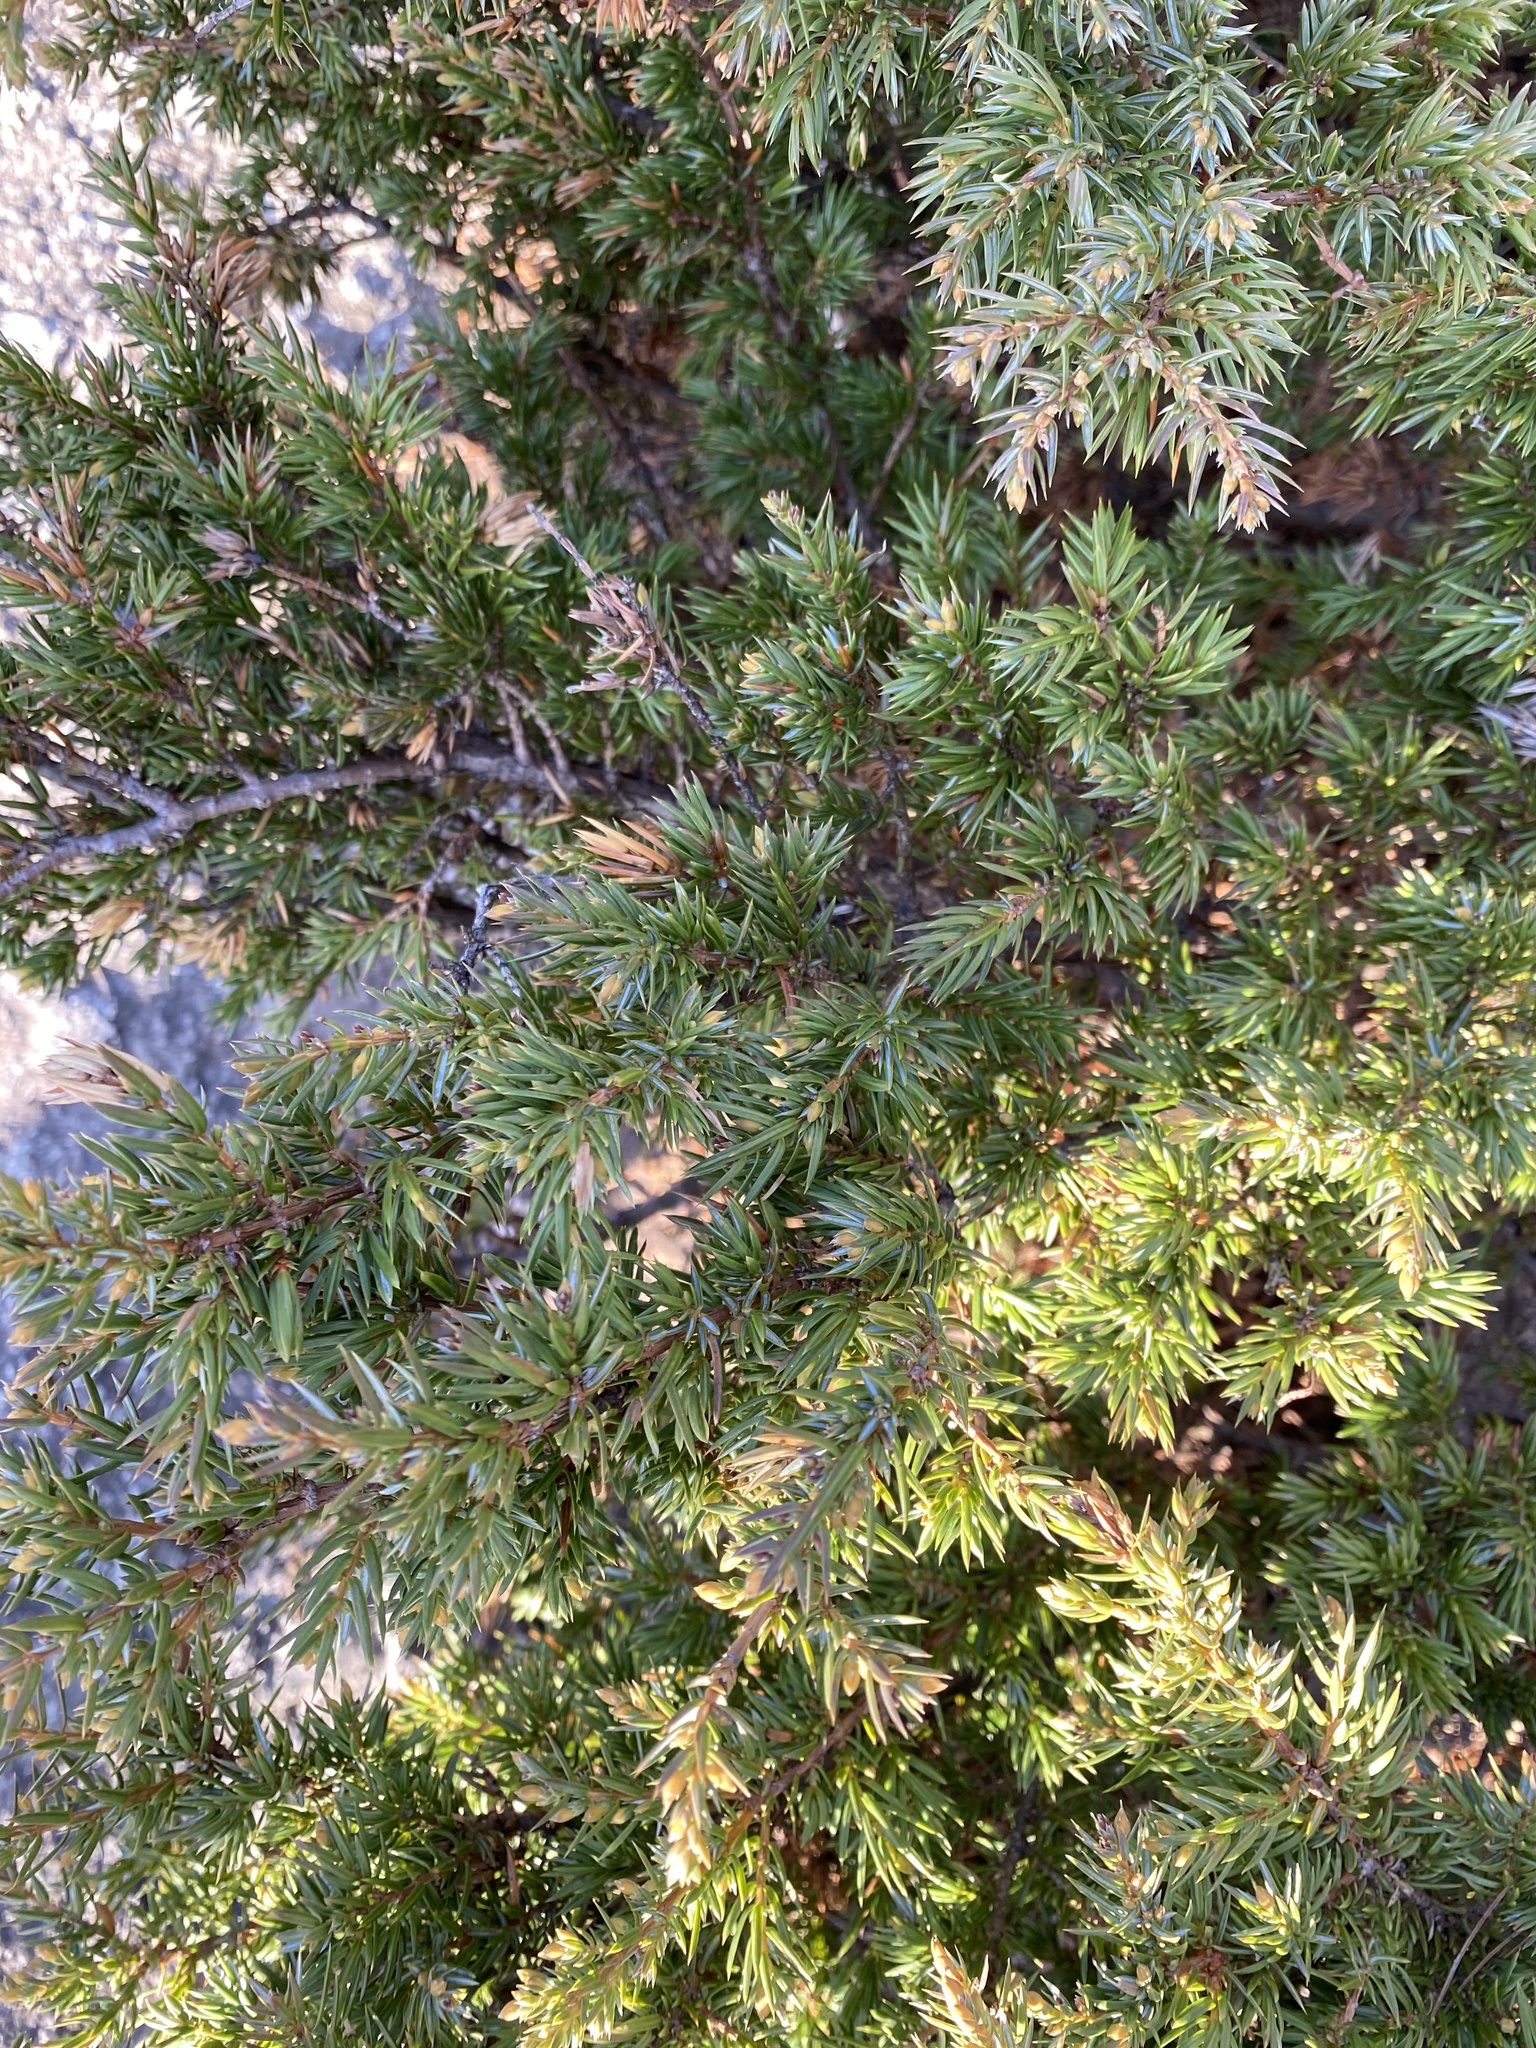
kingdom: Plantae
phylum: Tracheophyta
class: Pinopsida
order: Pinales
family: Cupressaceae
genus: Juniperus
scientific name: Juniperus communis
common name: Common juniper
